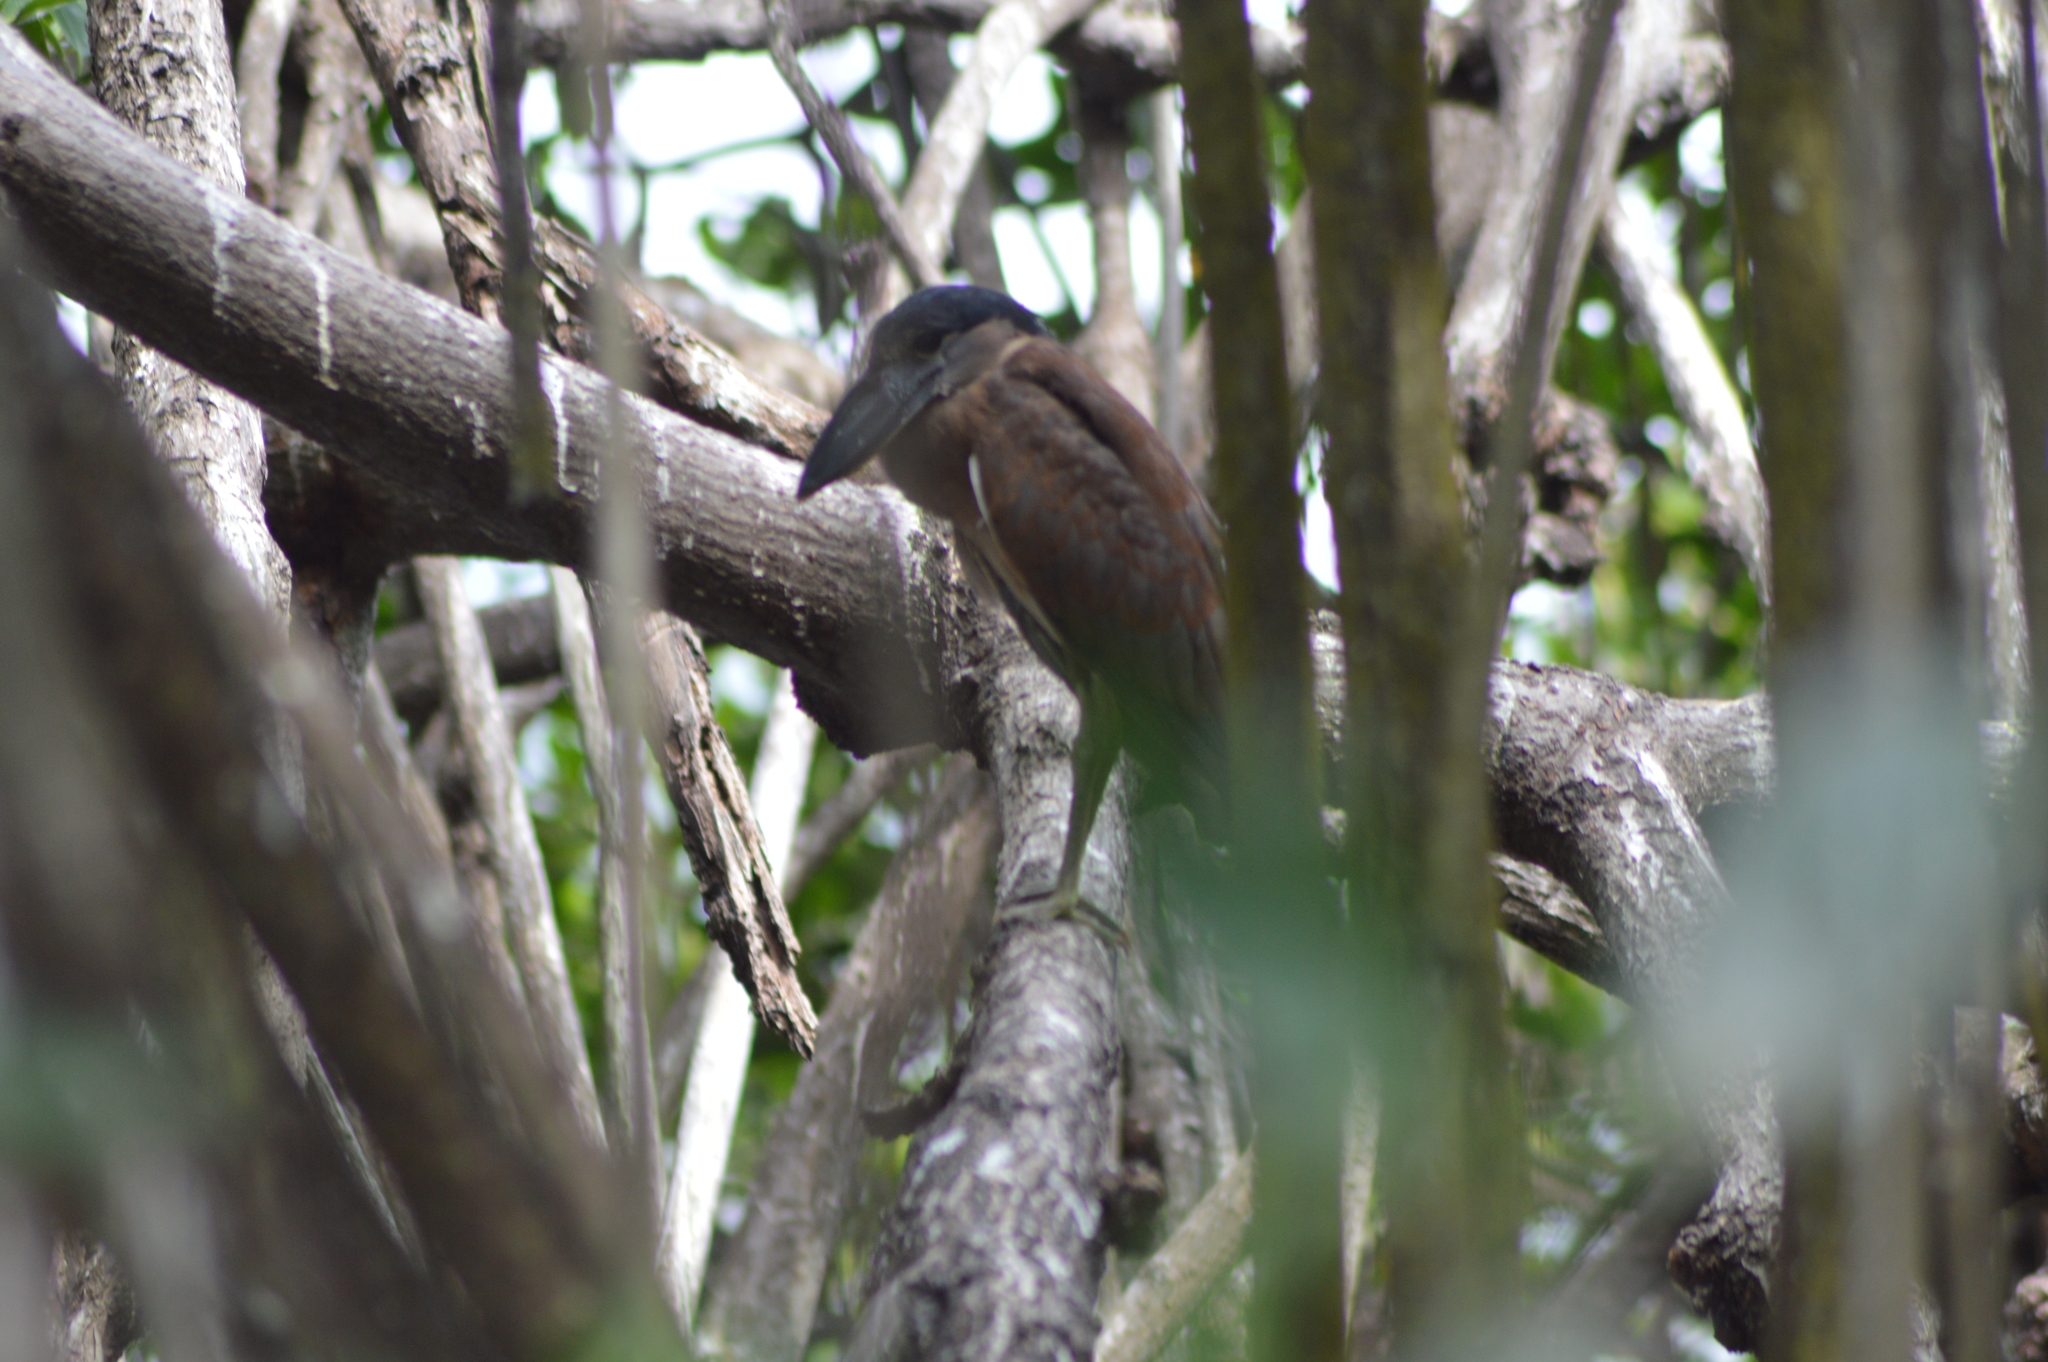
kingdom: Animalia
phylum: Chordata
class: Aves
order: Pelecaniformes
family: Ardeidae
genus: Cochlearius
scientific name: Cochlearius cochlearius
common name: Boat-billed heron
